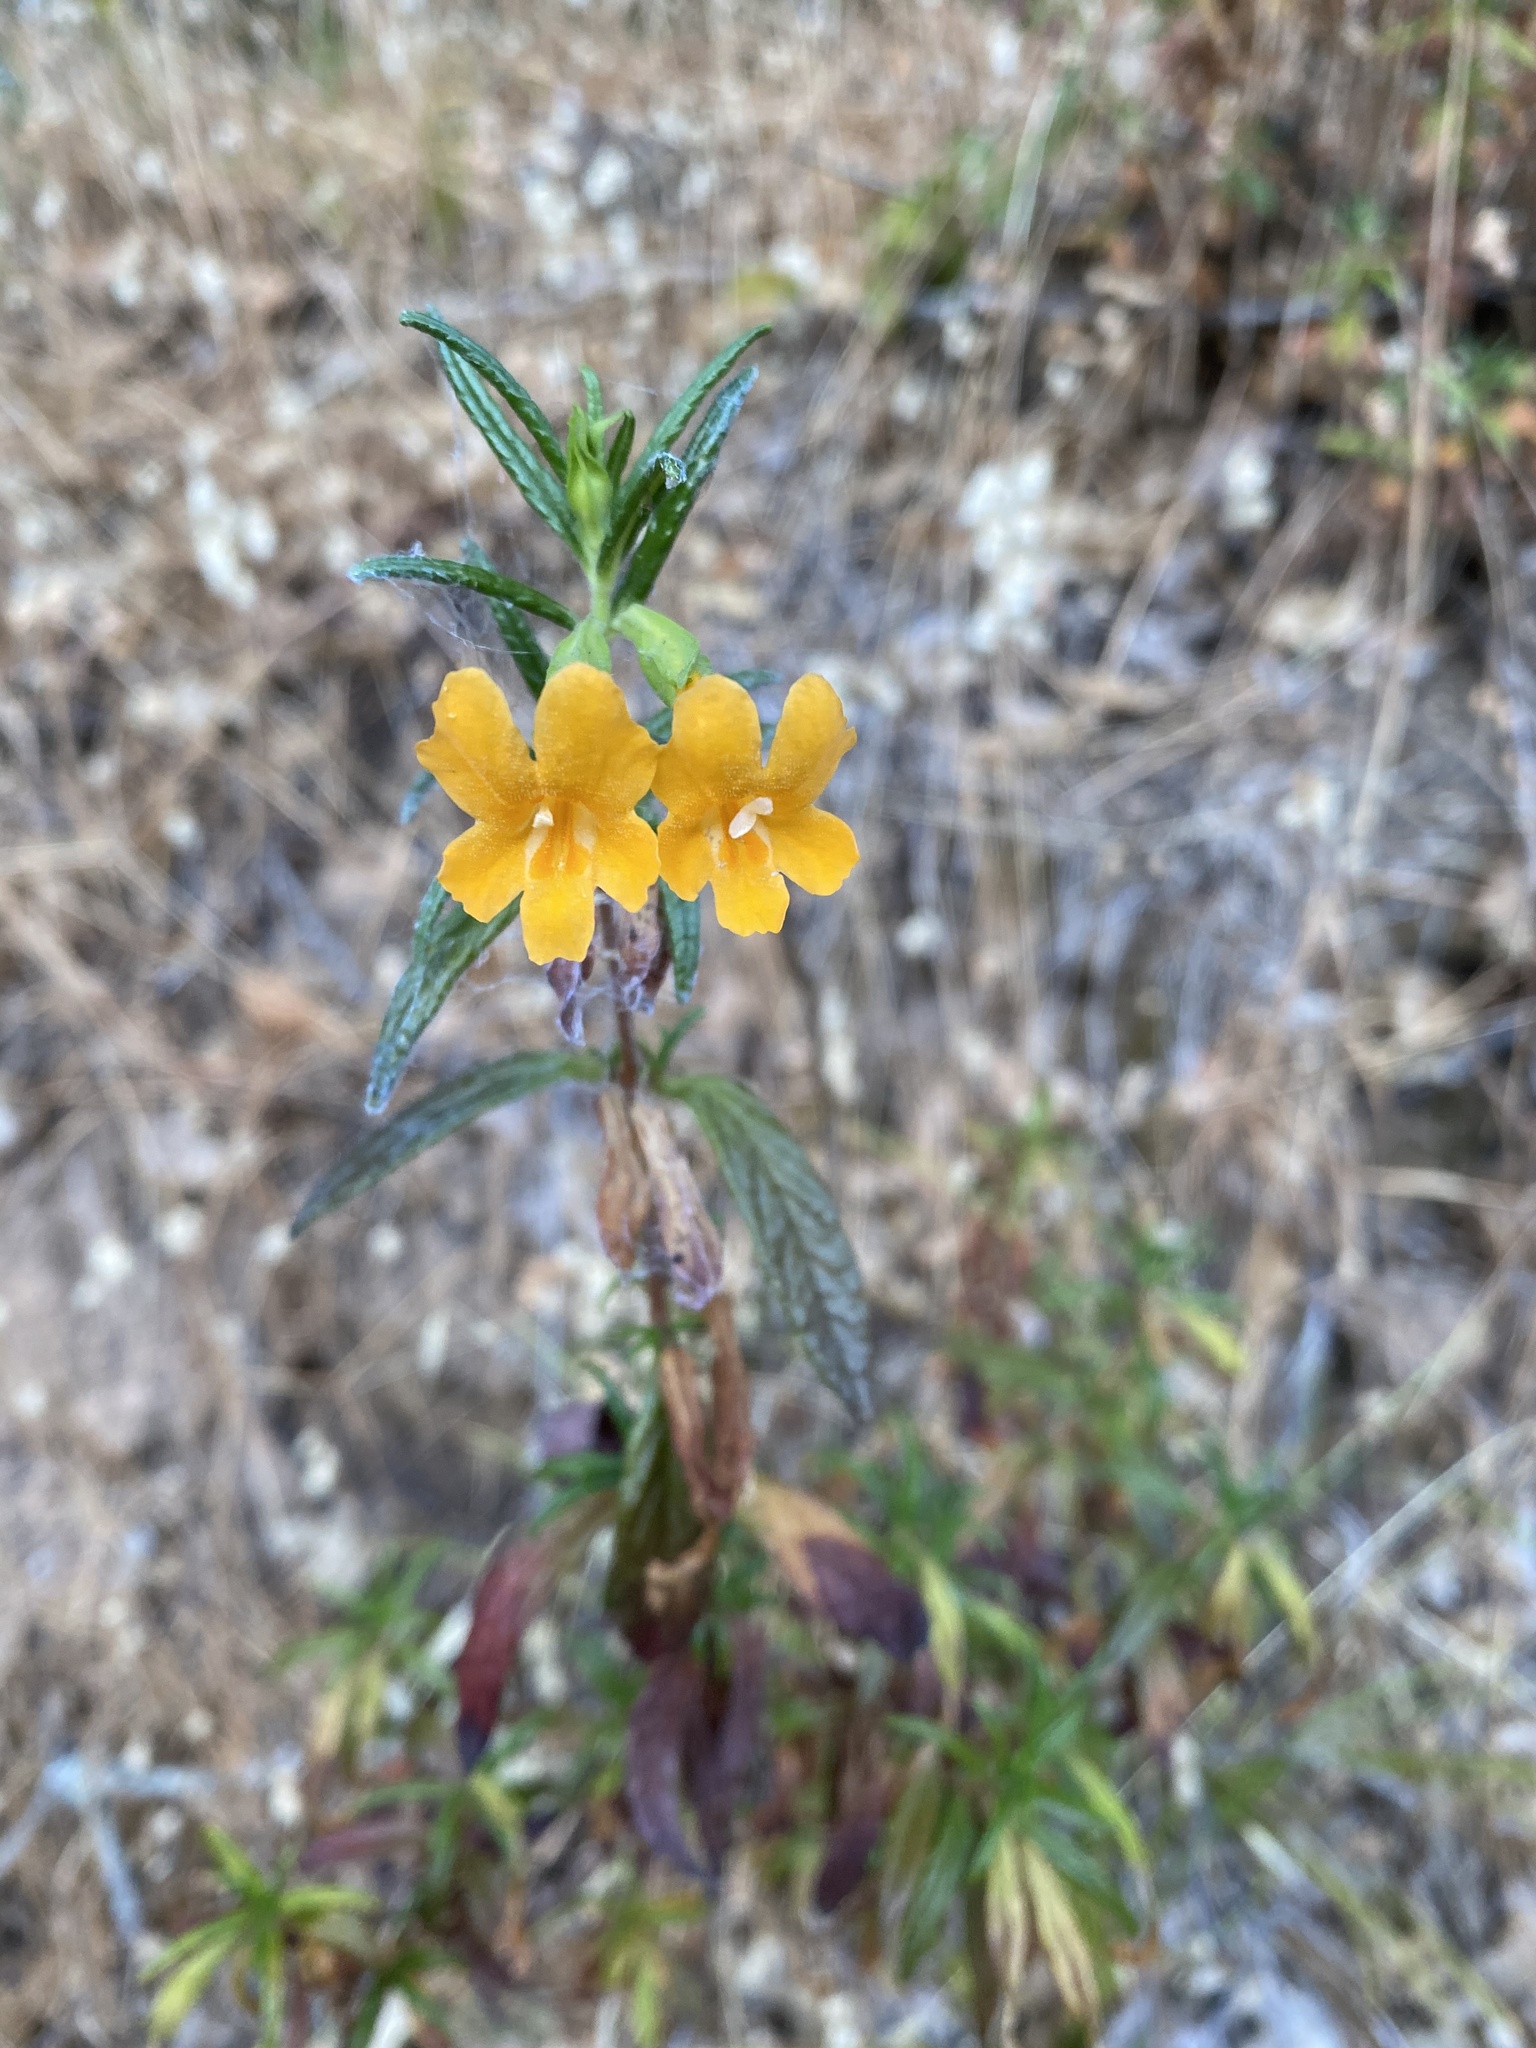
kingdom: Plantae
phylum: Tracheophyta
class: Magnoliopsida
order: Lamiales
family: Phrymaceae
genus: Diplacus
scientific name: Diplacus aurantiacus
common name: Bush monkey-flower
